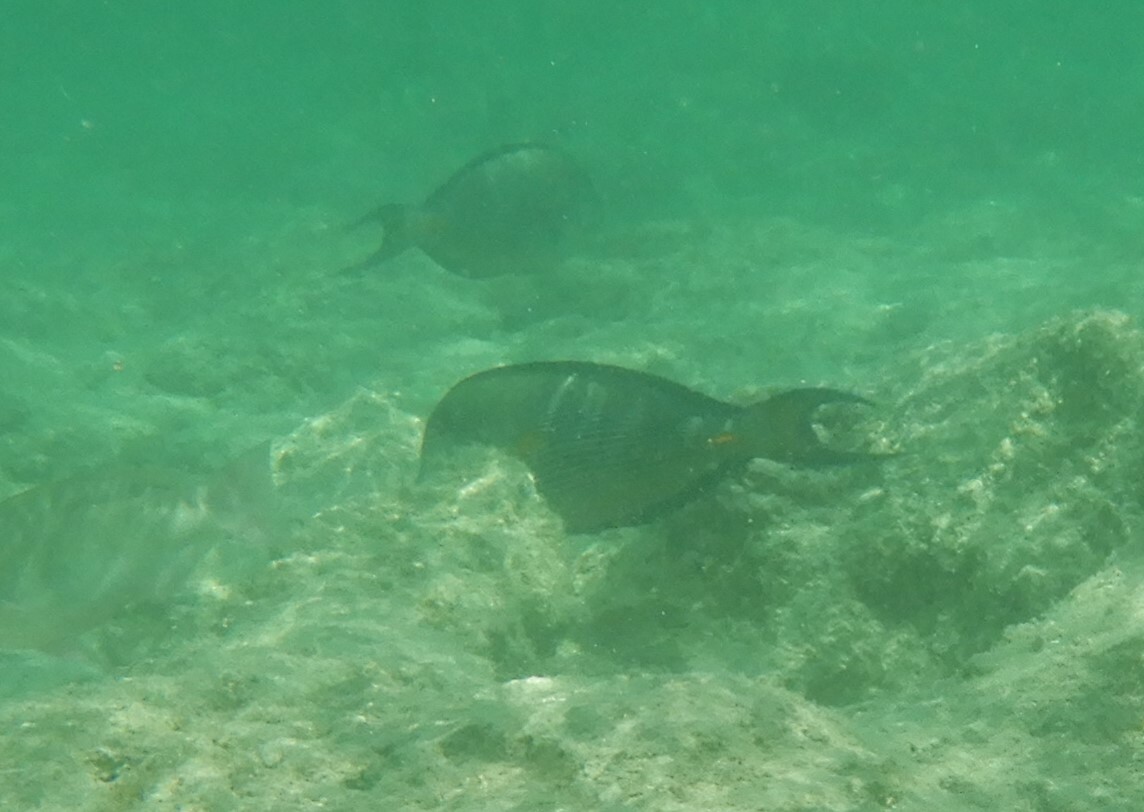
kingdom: Animalia
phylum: Chordata
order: Perciformes
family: Acanthuridae
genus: Acanthurus
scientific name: Acanthurus sohal
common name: Red sea surgeonfish
